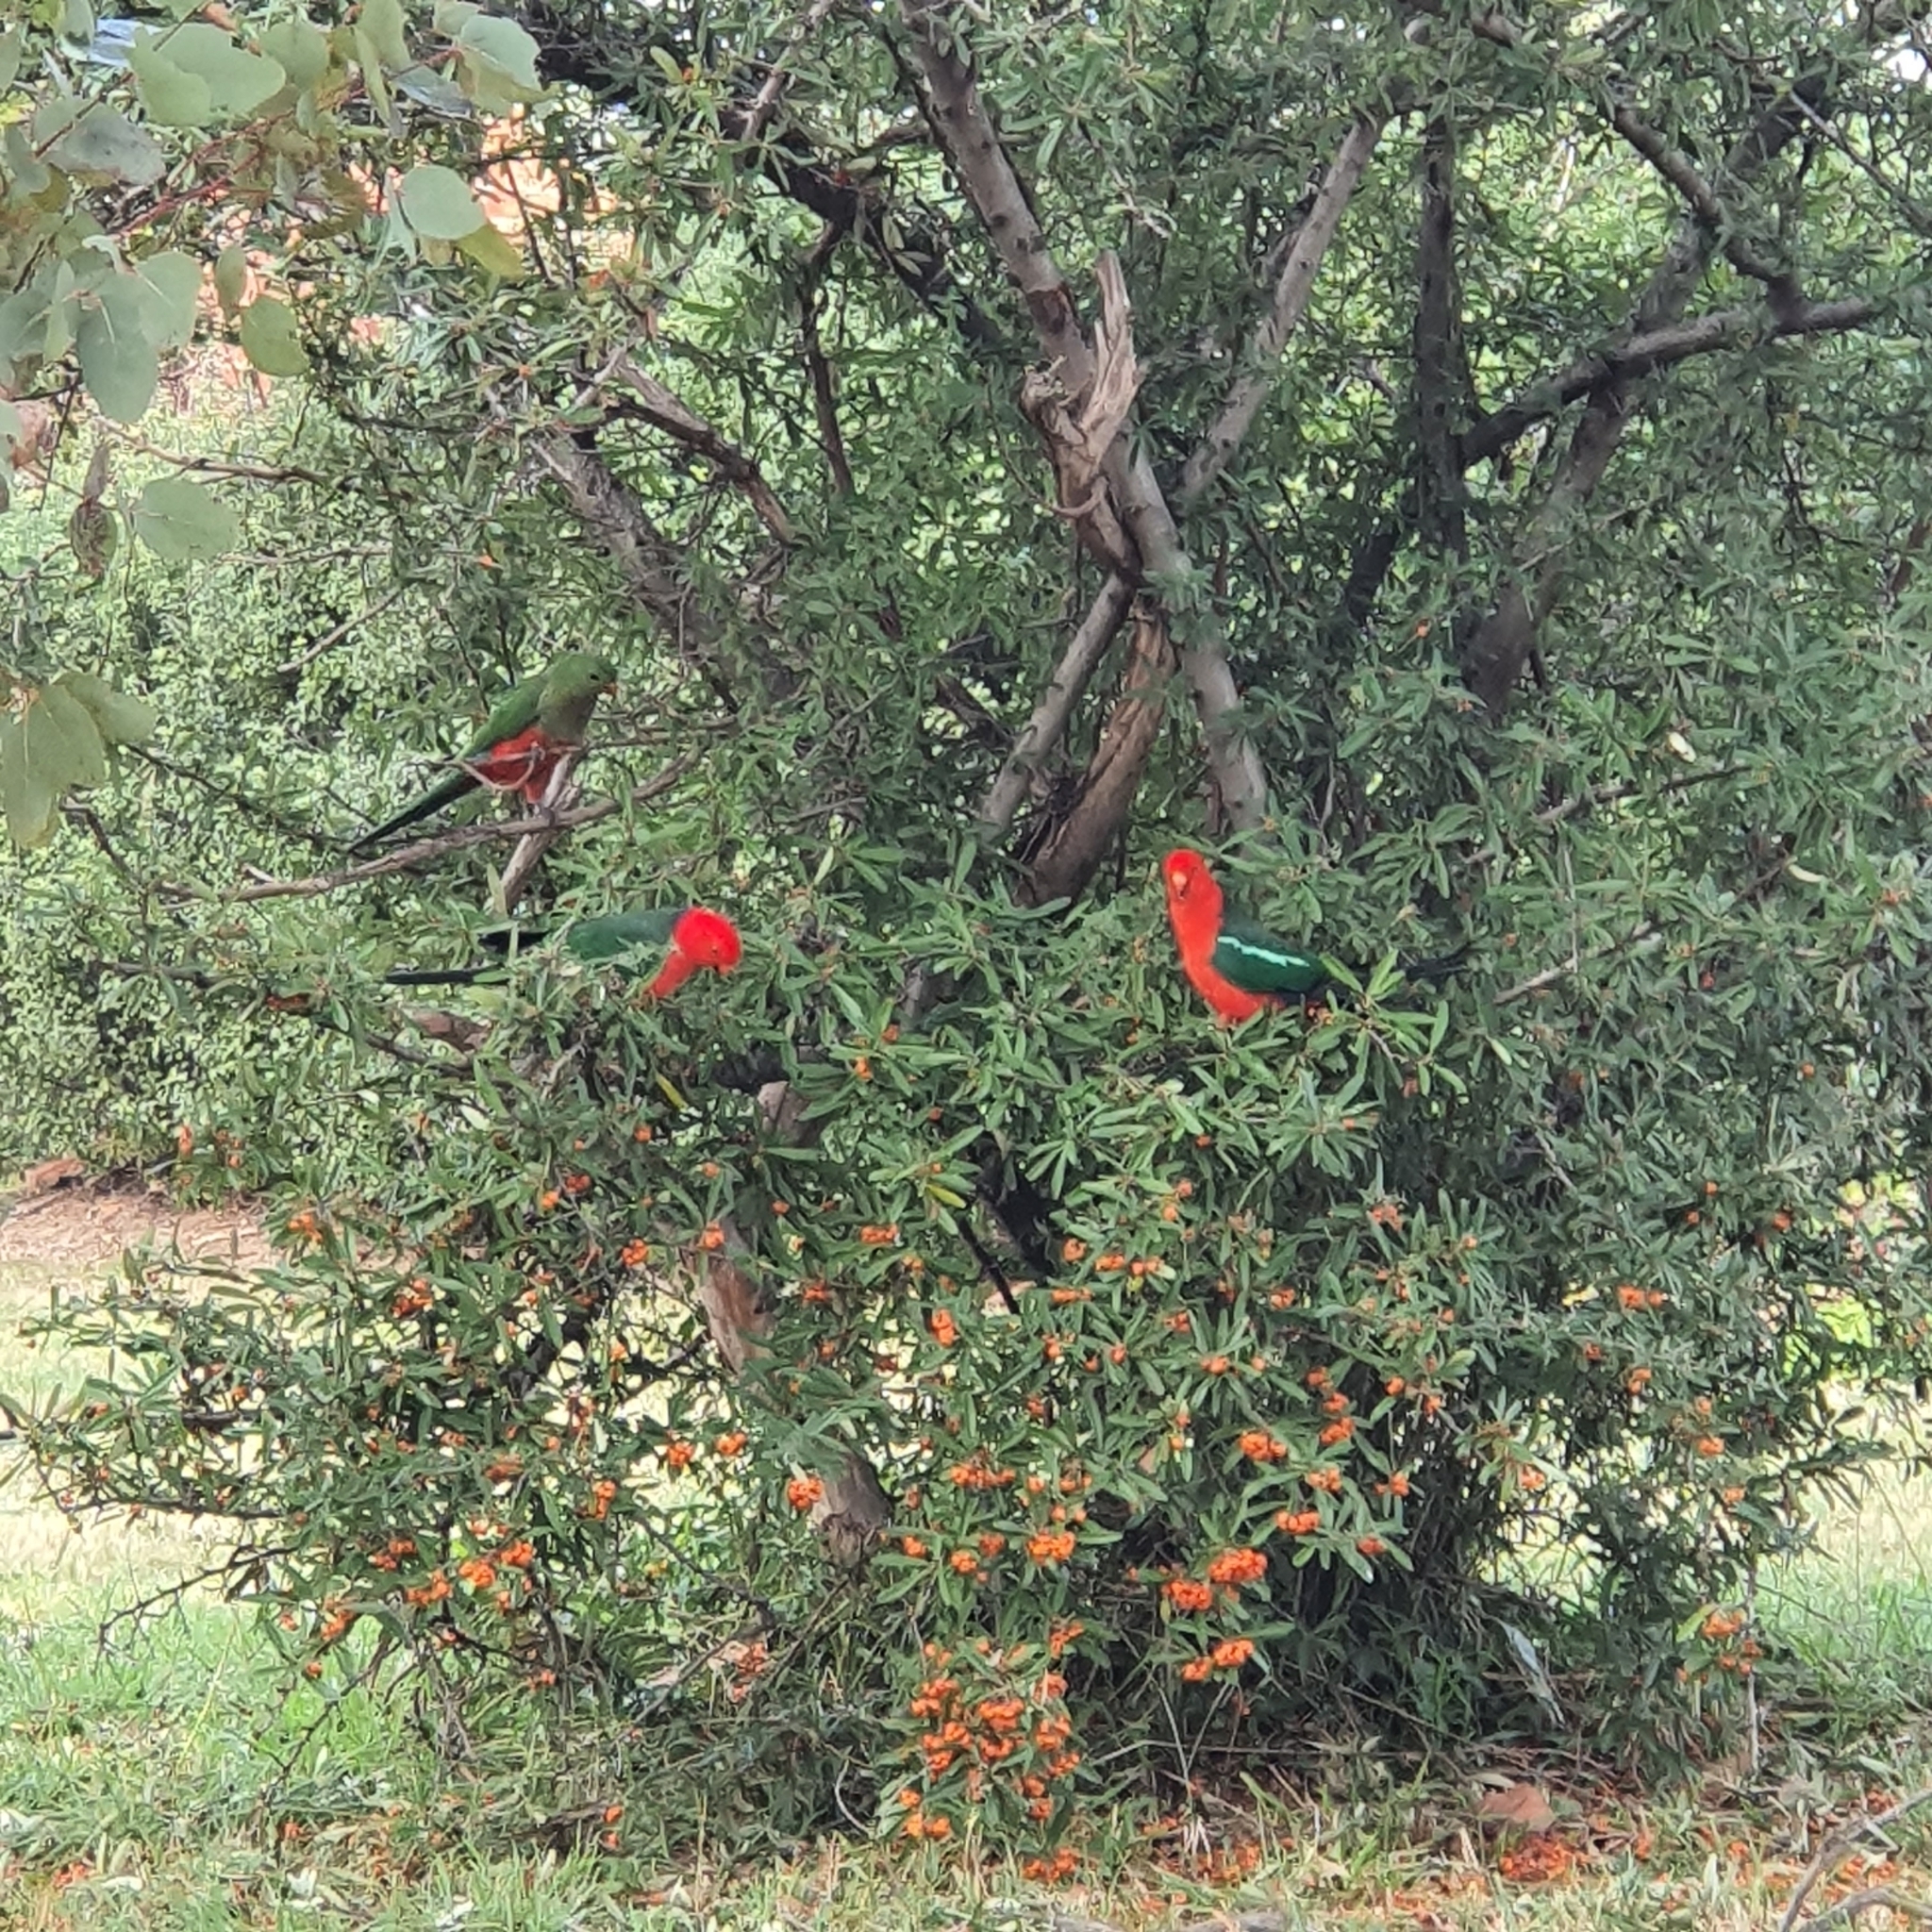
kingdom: Animalia
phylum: Chordata
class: Aves
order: Psittaciformes
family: Psittacidae
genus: Alisterus
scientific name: Alisterus scapularis
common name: Australian king parrot
